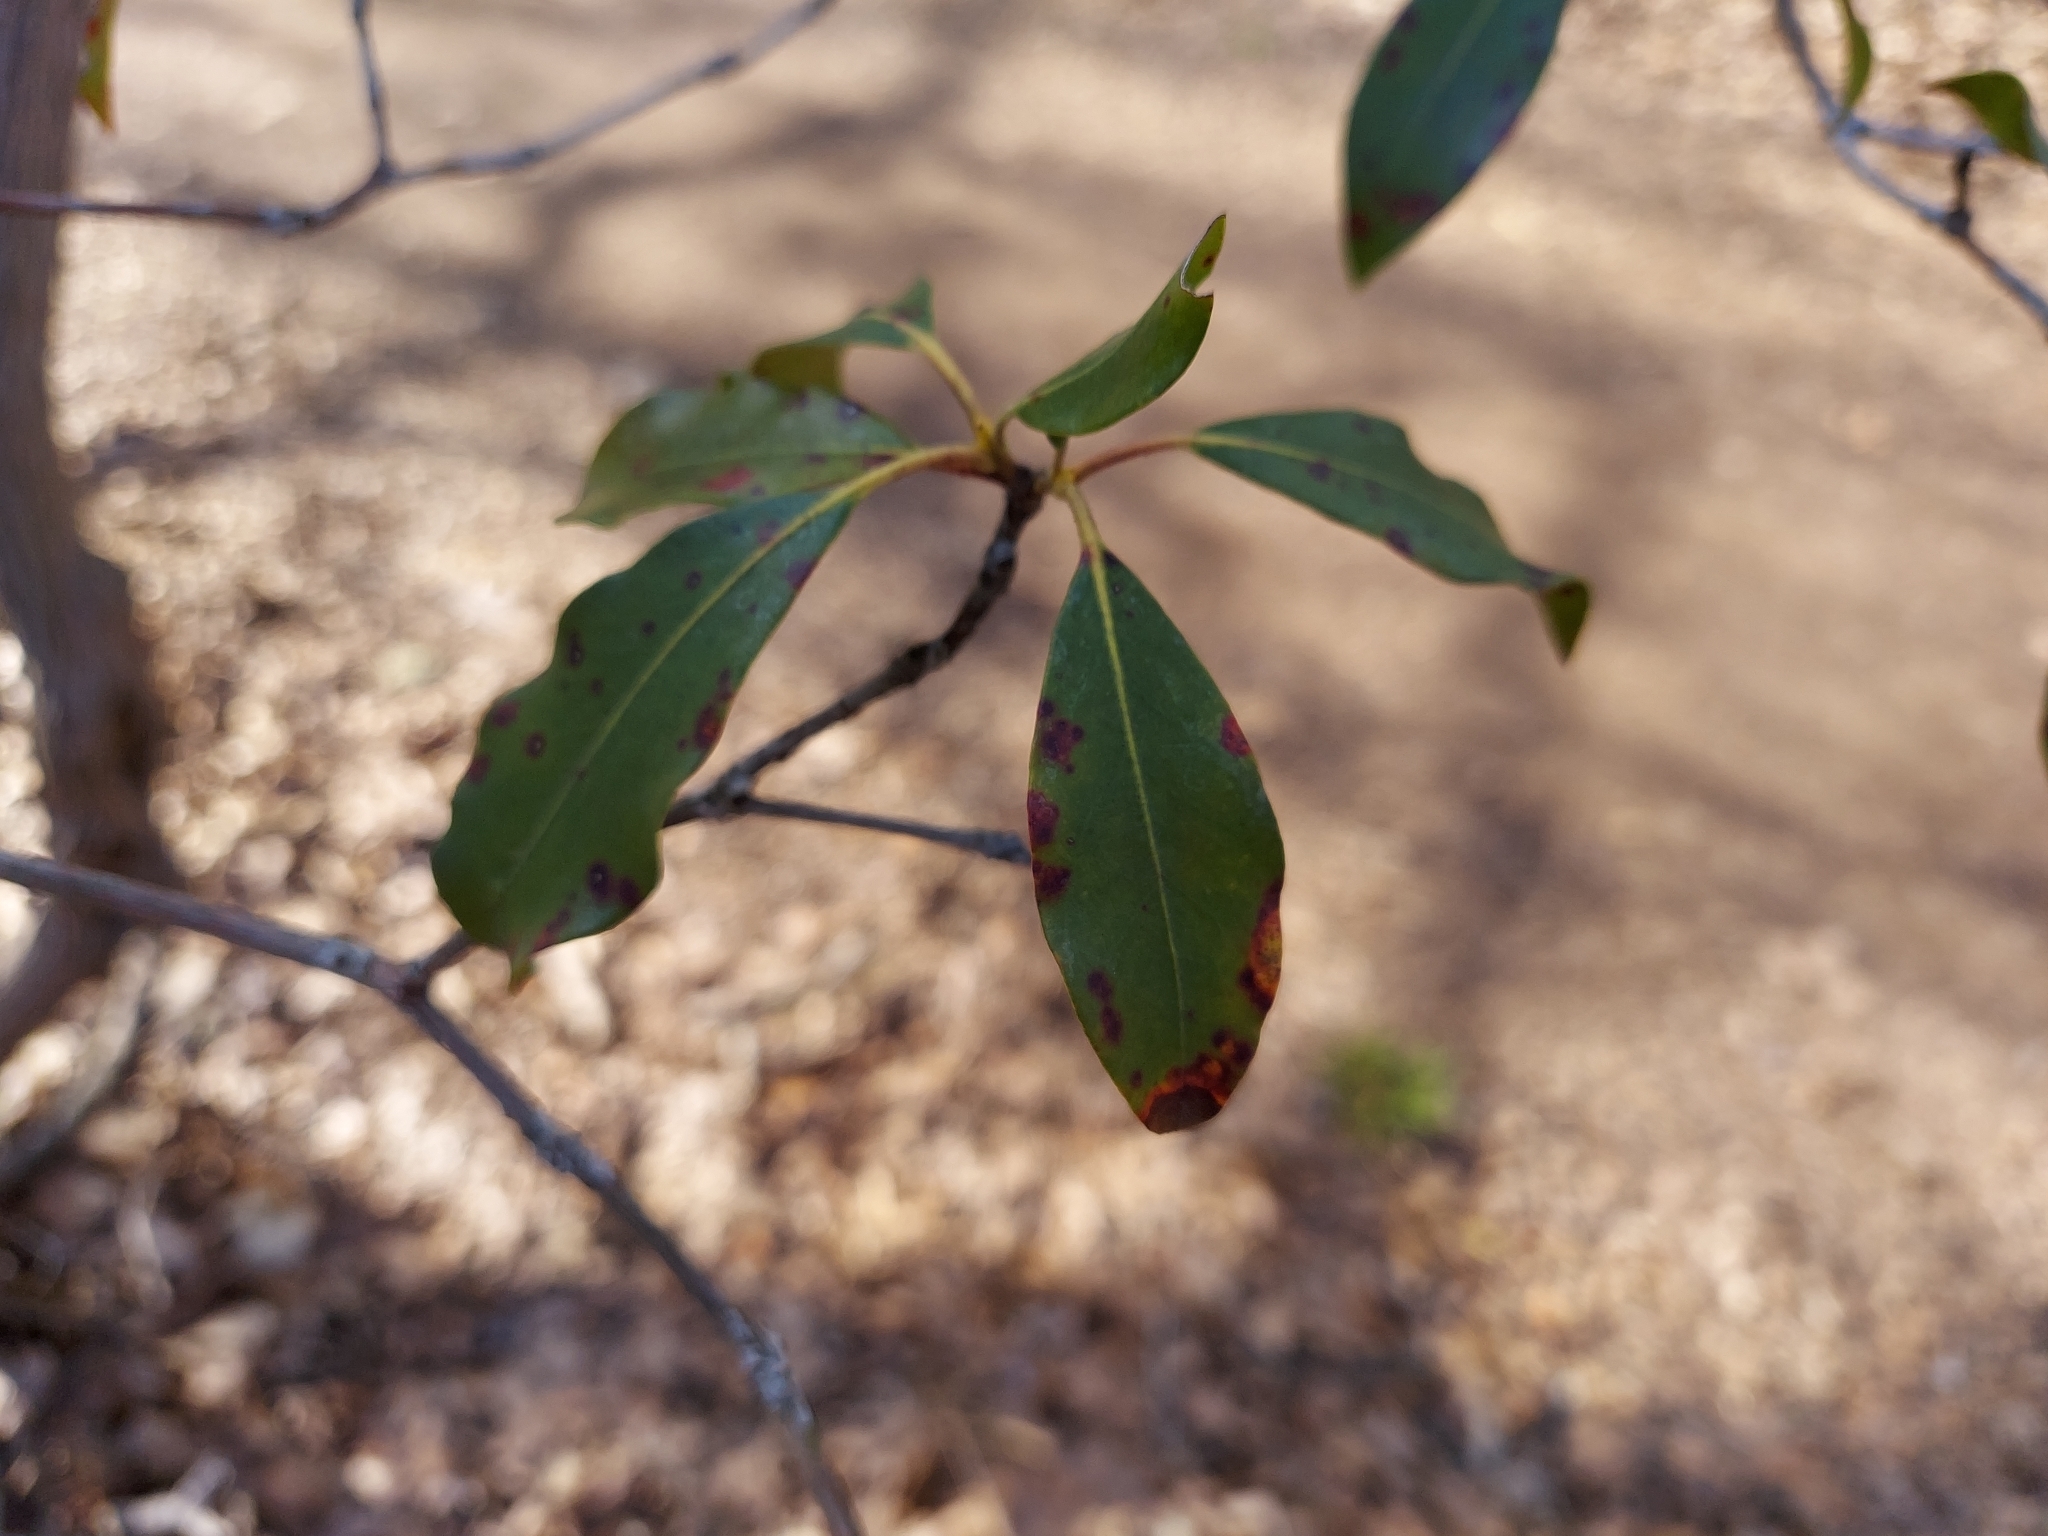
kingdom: Plantae
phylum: Tracheophyta
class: Magnoliopsida
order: Ericales
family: Ericaceae
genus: Kalmia
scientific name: Kalmia latifolia
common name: Mountain-laurel
